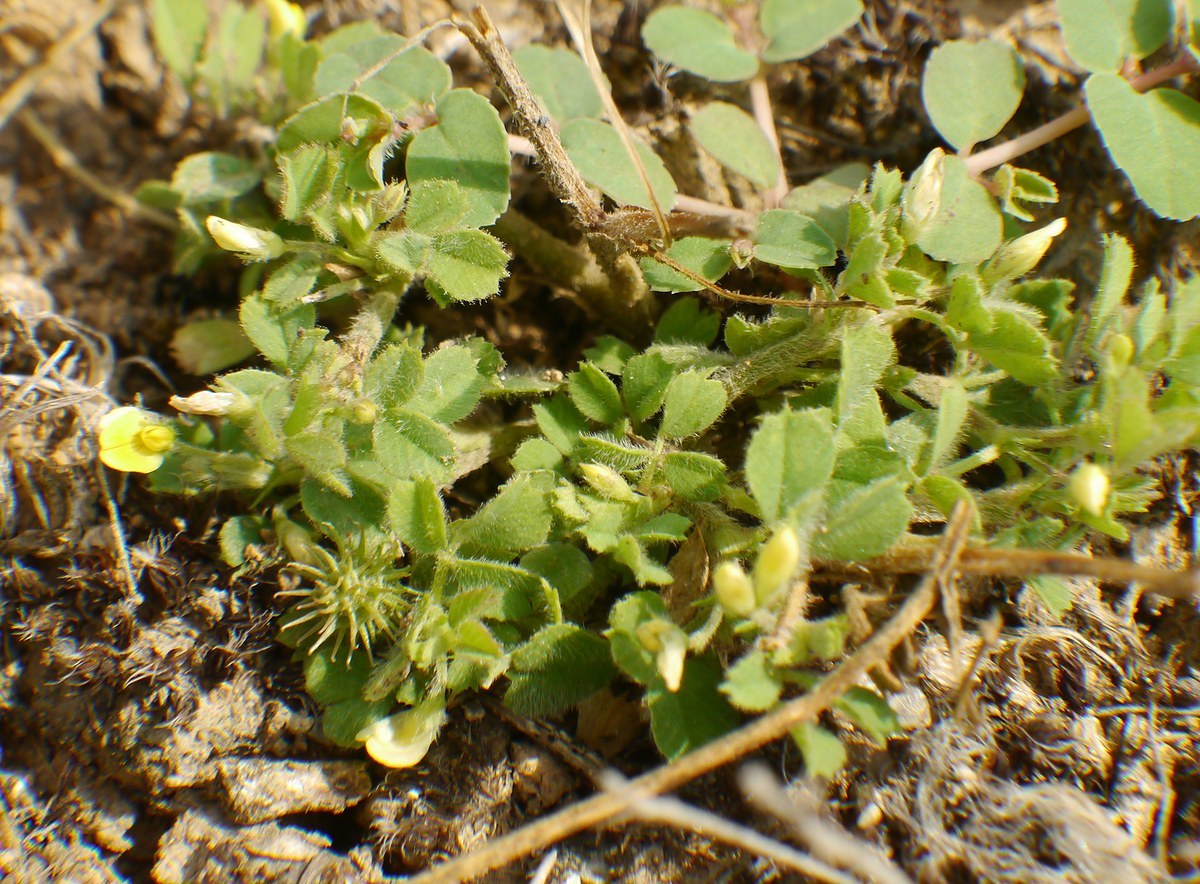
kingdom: Plantae
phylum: Tracheophyta
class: Magnoliopsida
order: Fabales
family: Fabaceae
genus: Medicago
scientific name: Medicago minima
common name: Little bur-clover
